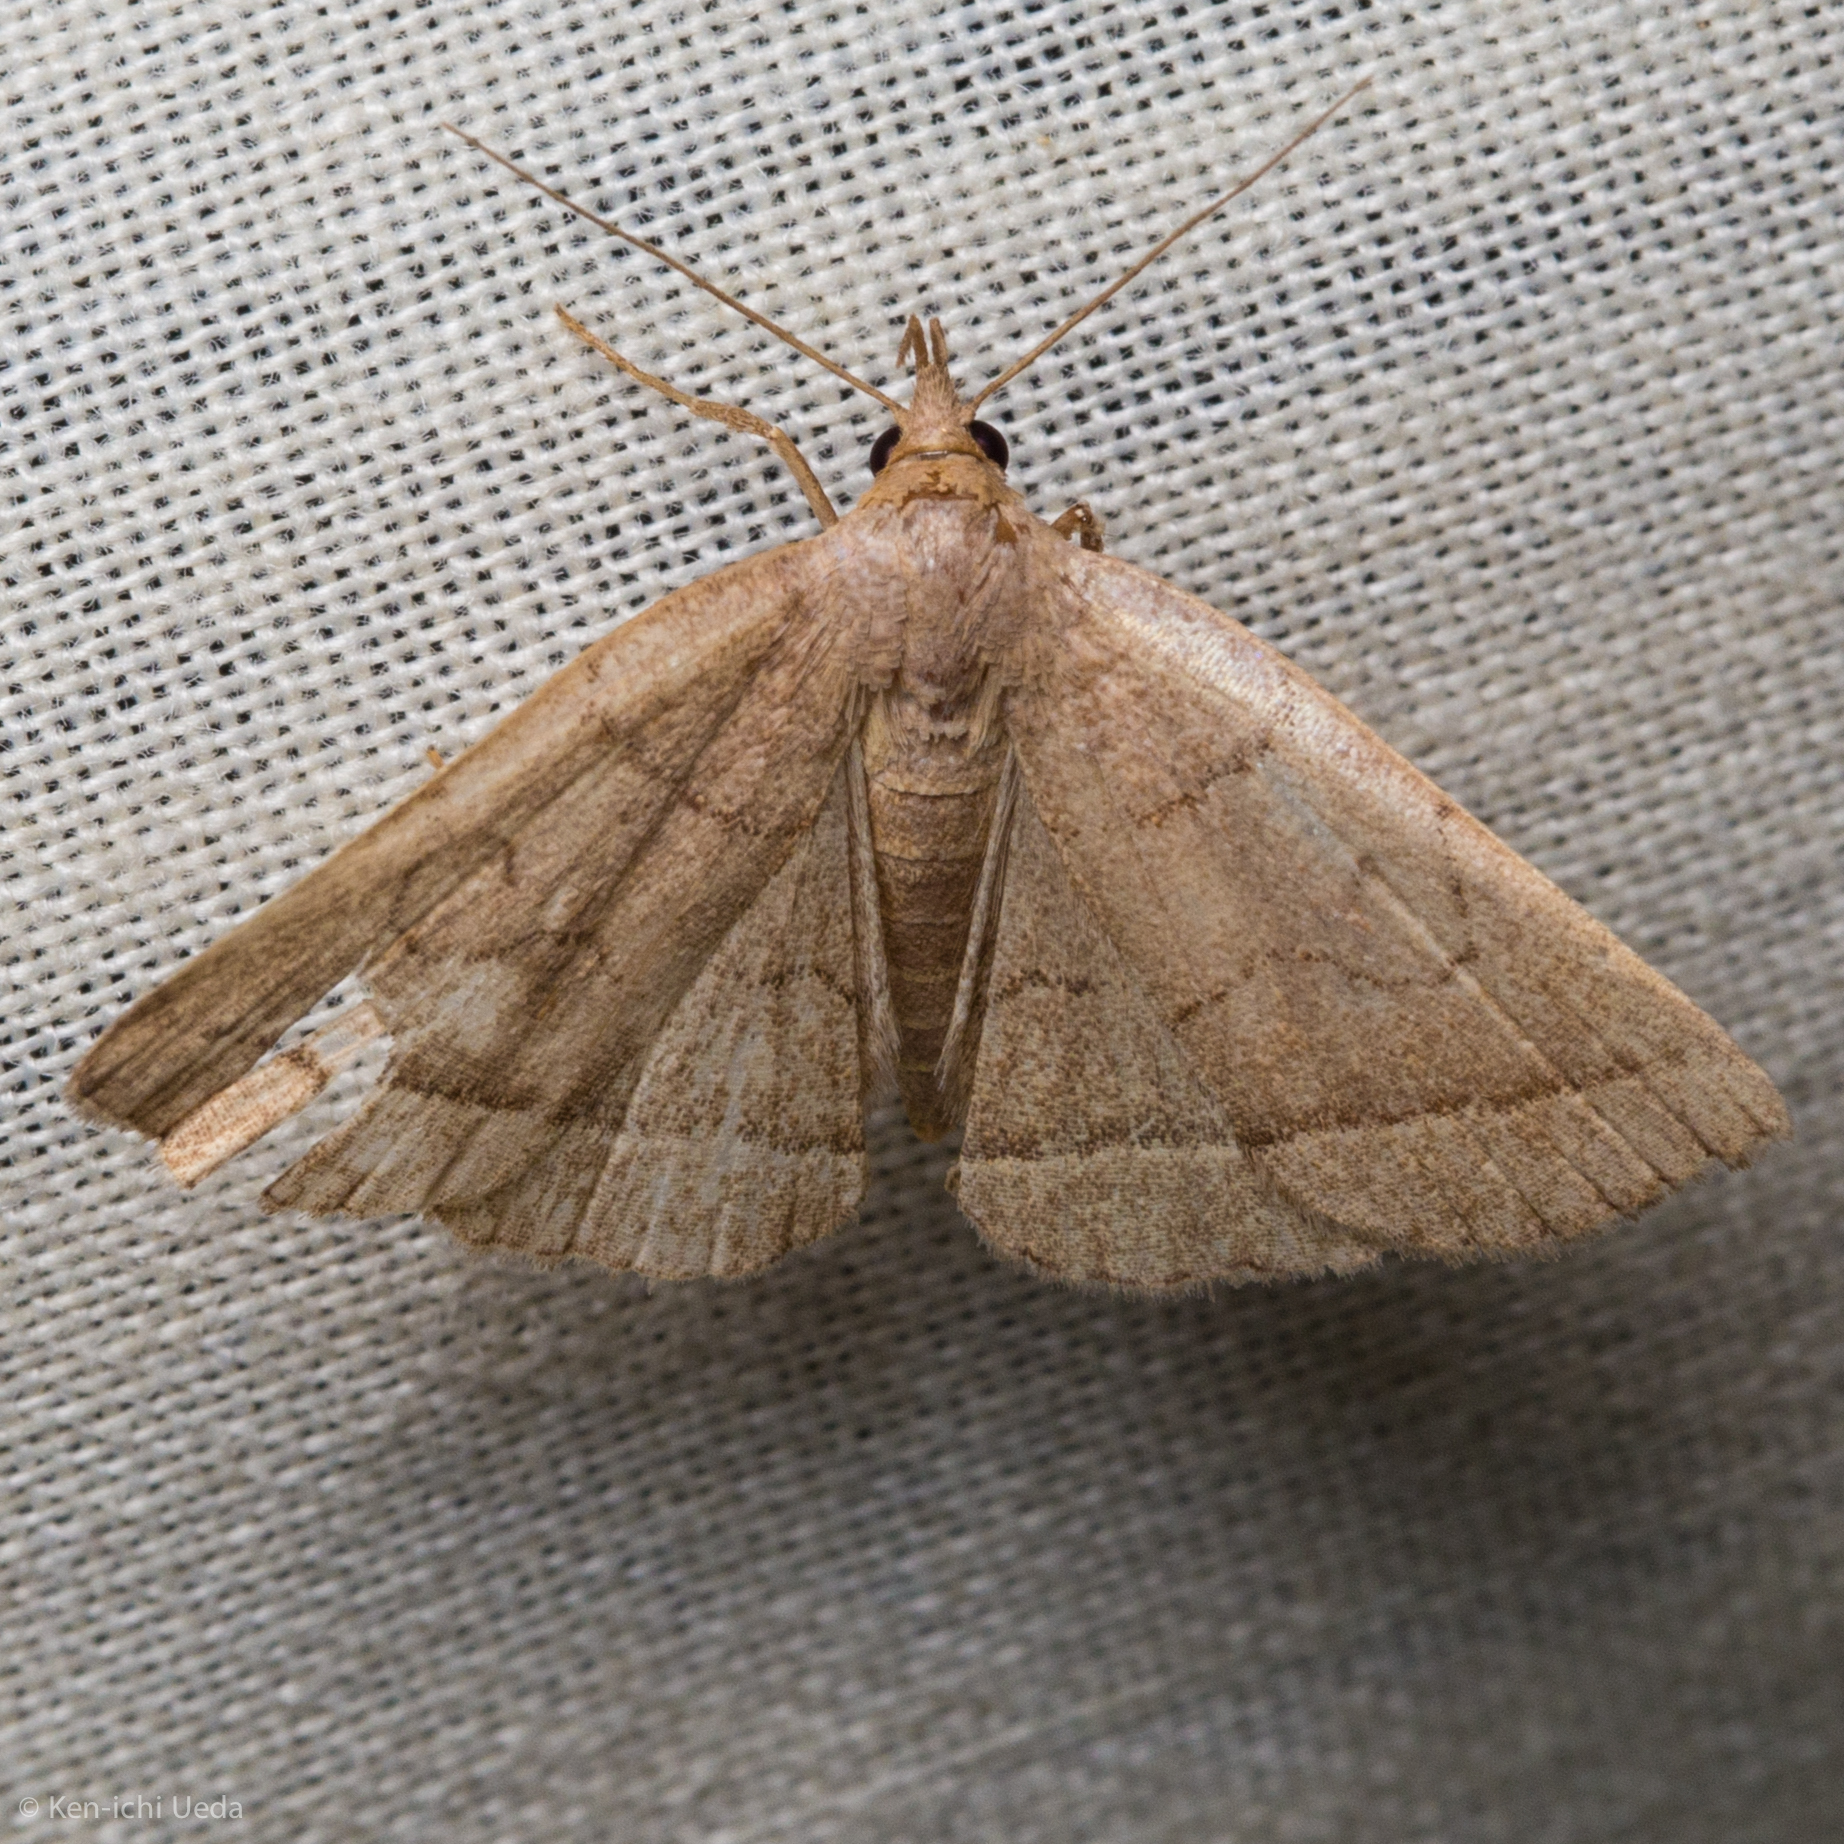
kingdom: Animalia
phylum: Arthropoda
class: Insecta
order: Lepidoptera
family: Erebidae
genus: Zanclognatha
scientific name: Zanclognatha cruralis
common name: Early fan-foot
